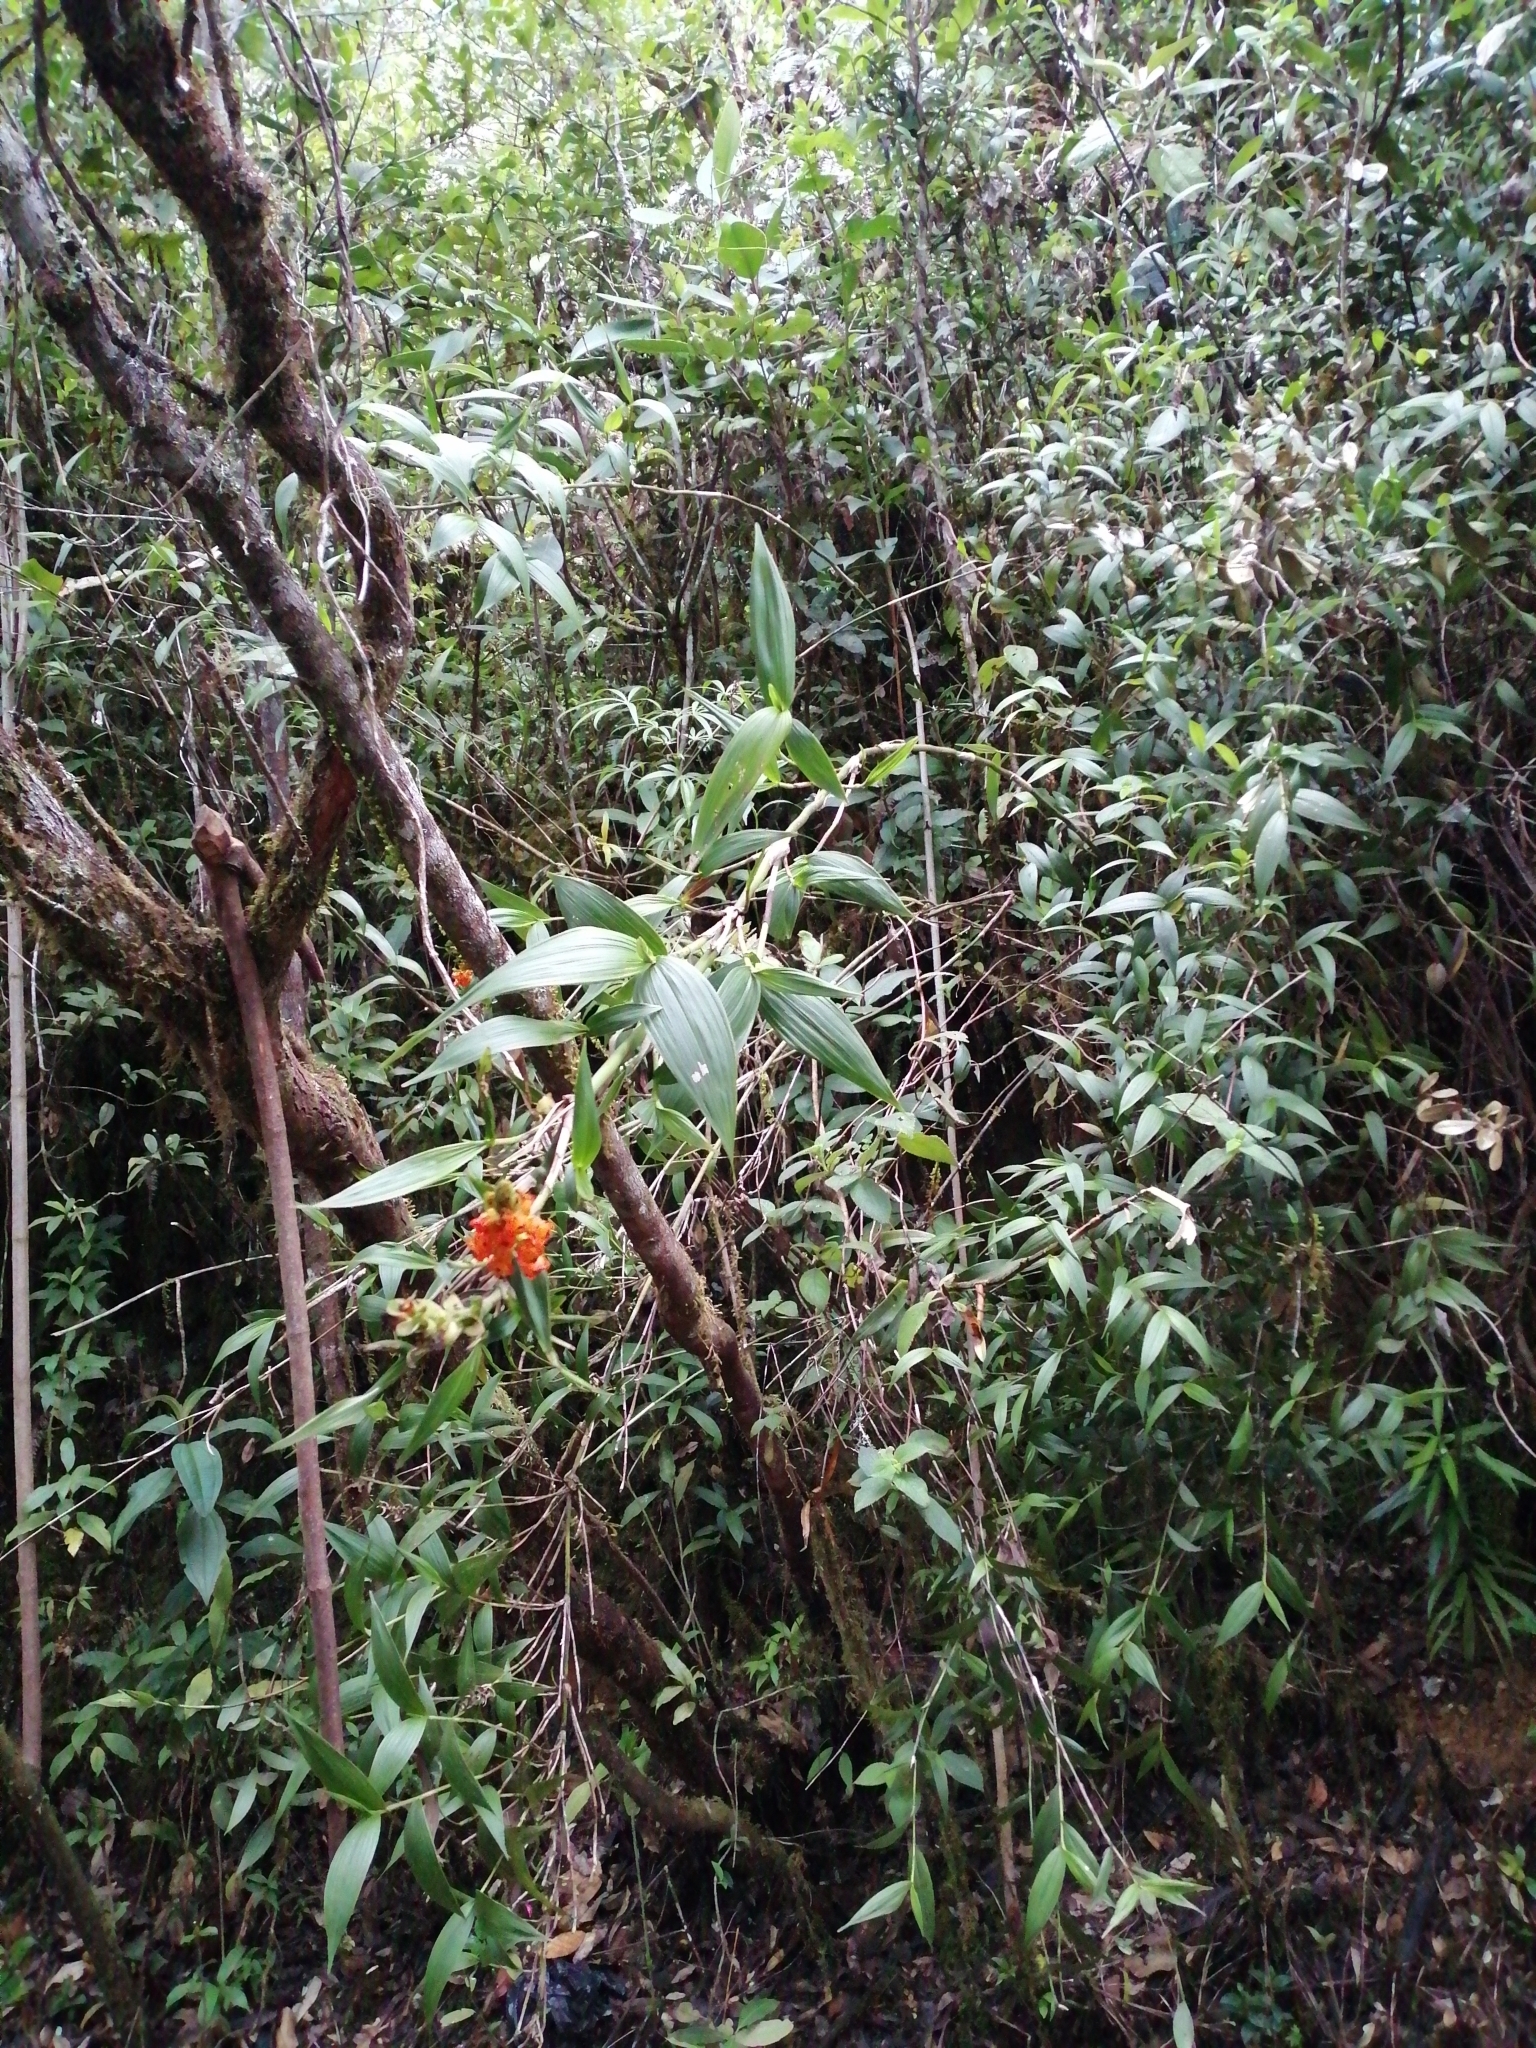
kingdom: Plantae
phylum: Tracheophyta
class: Liliopsida
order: Asparagales
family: Orchidaceae
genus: Elleanthus
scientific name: Elleanthus aurantiacus
